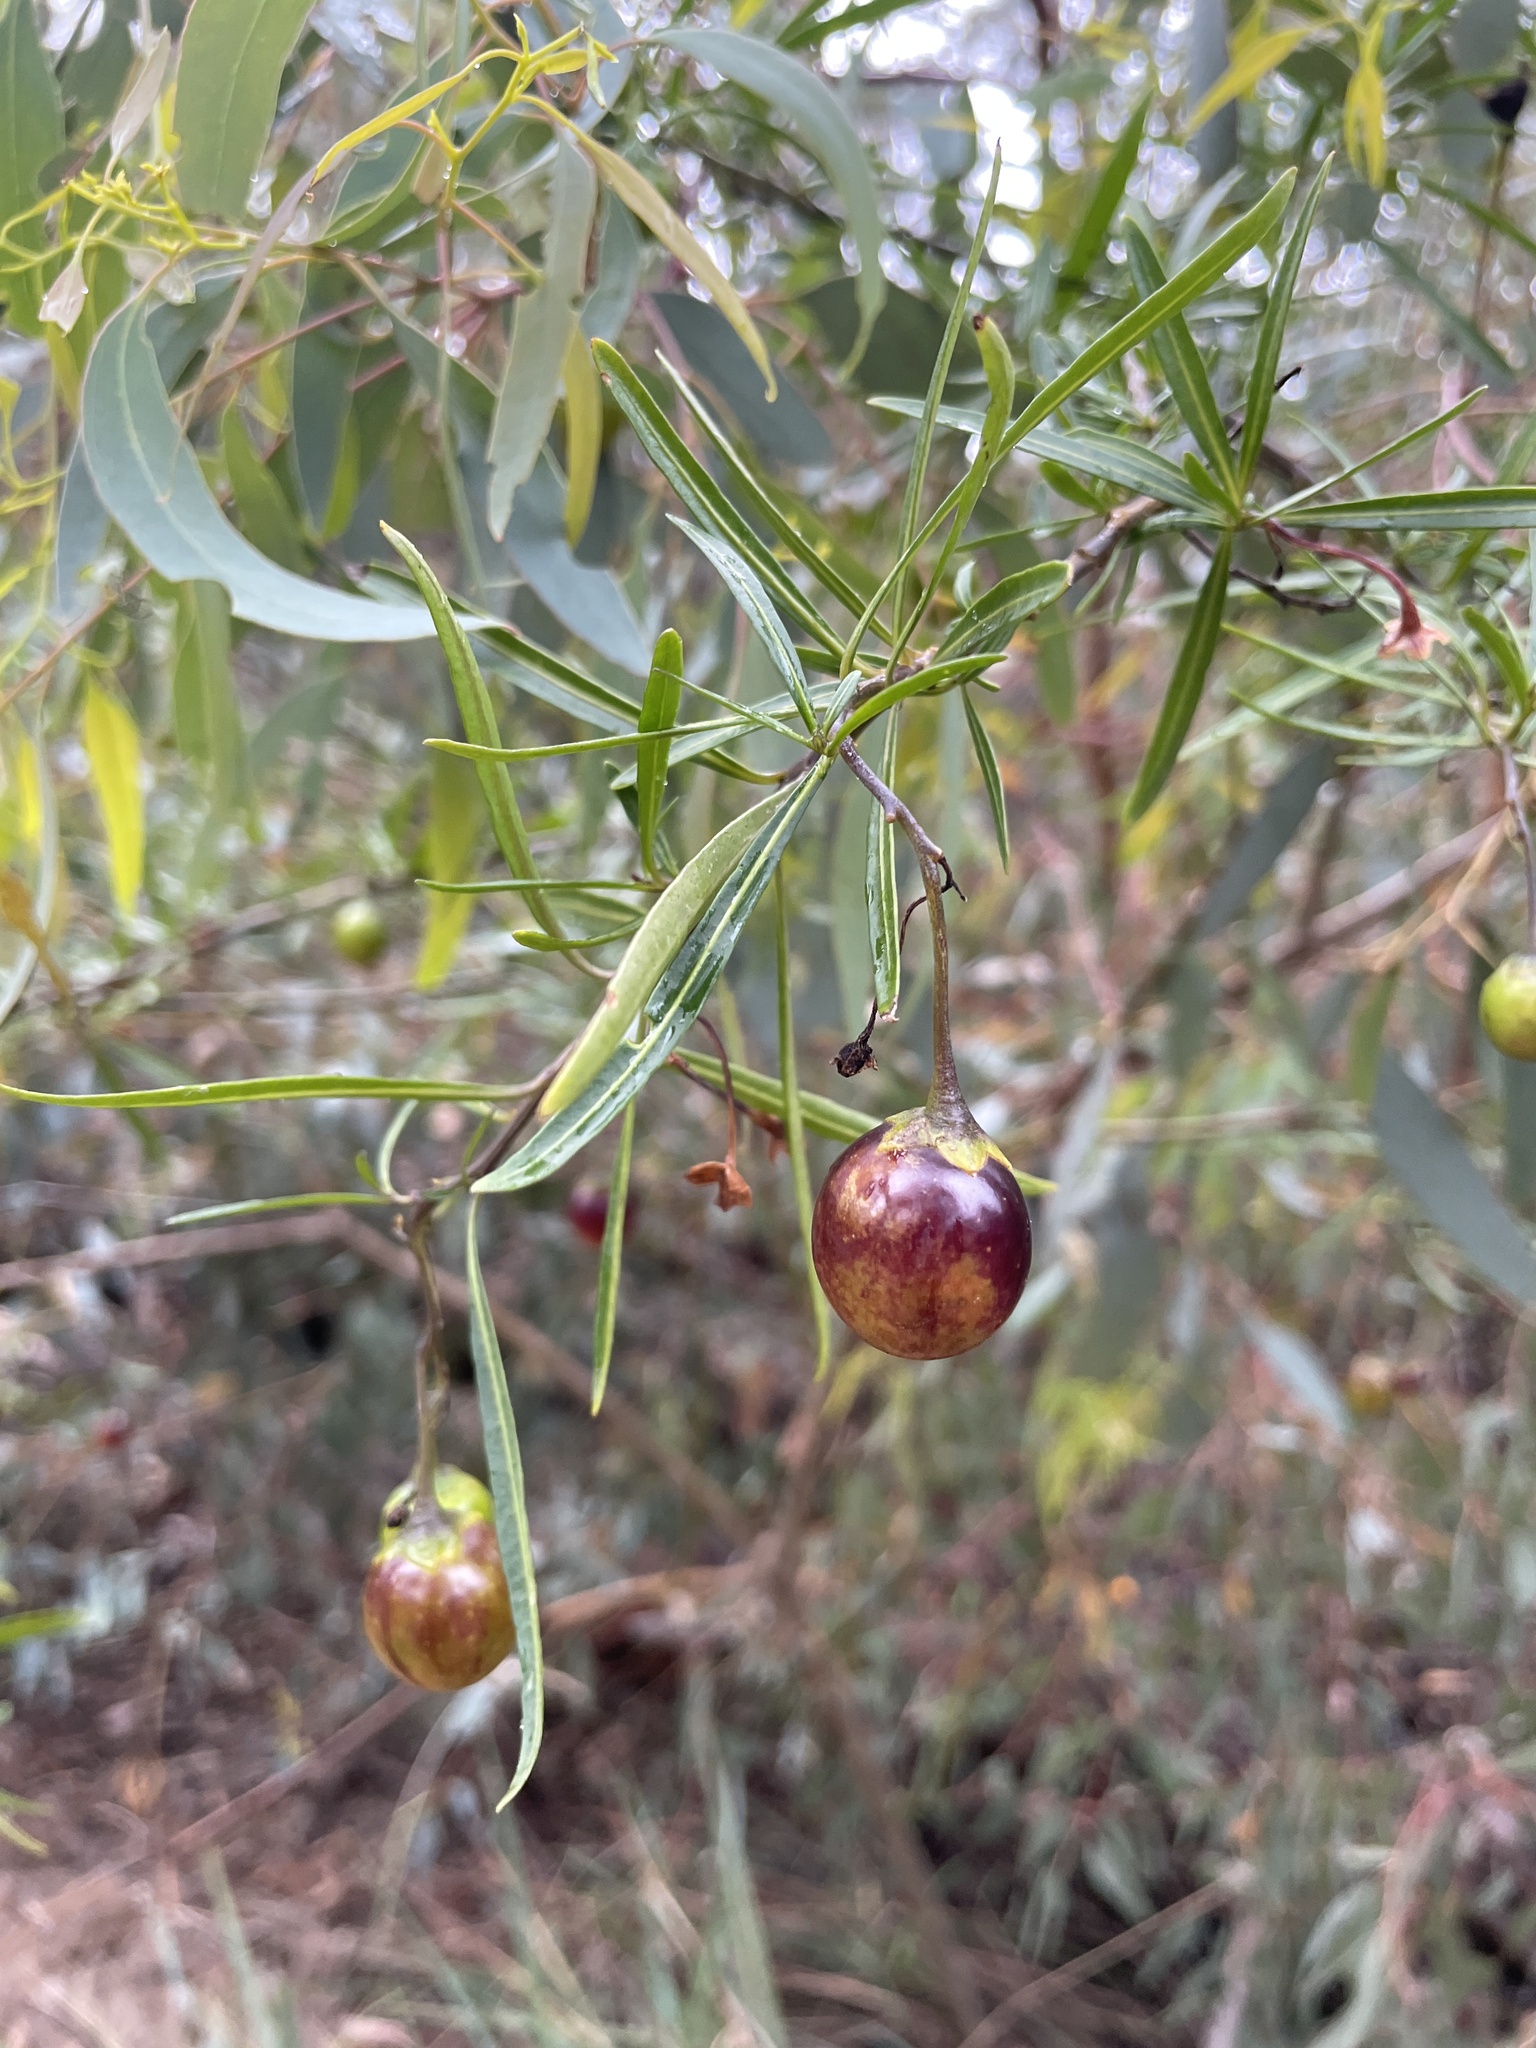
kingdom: Plantae
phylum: Tracheophyta
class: Magnoliopsida
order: Solanales
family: Solanaceae
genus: Solanum
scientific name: Solanum linearifolium
